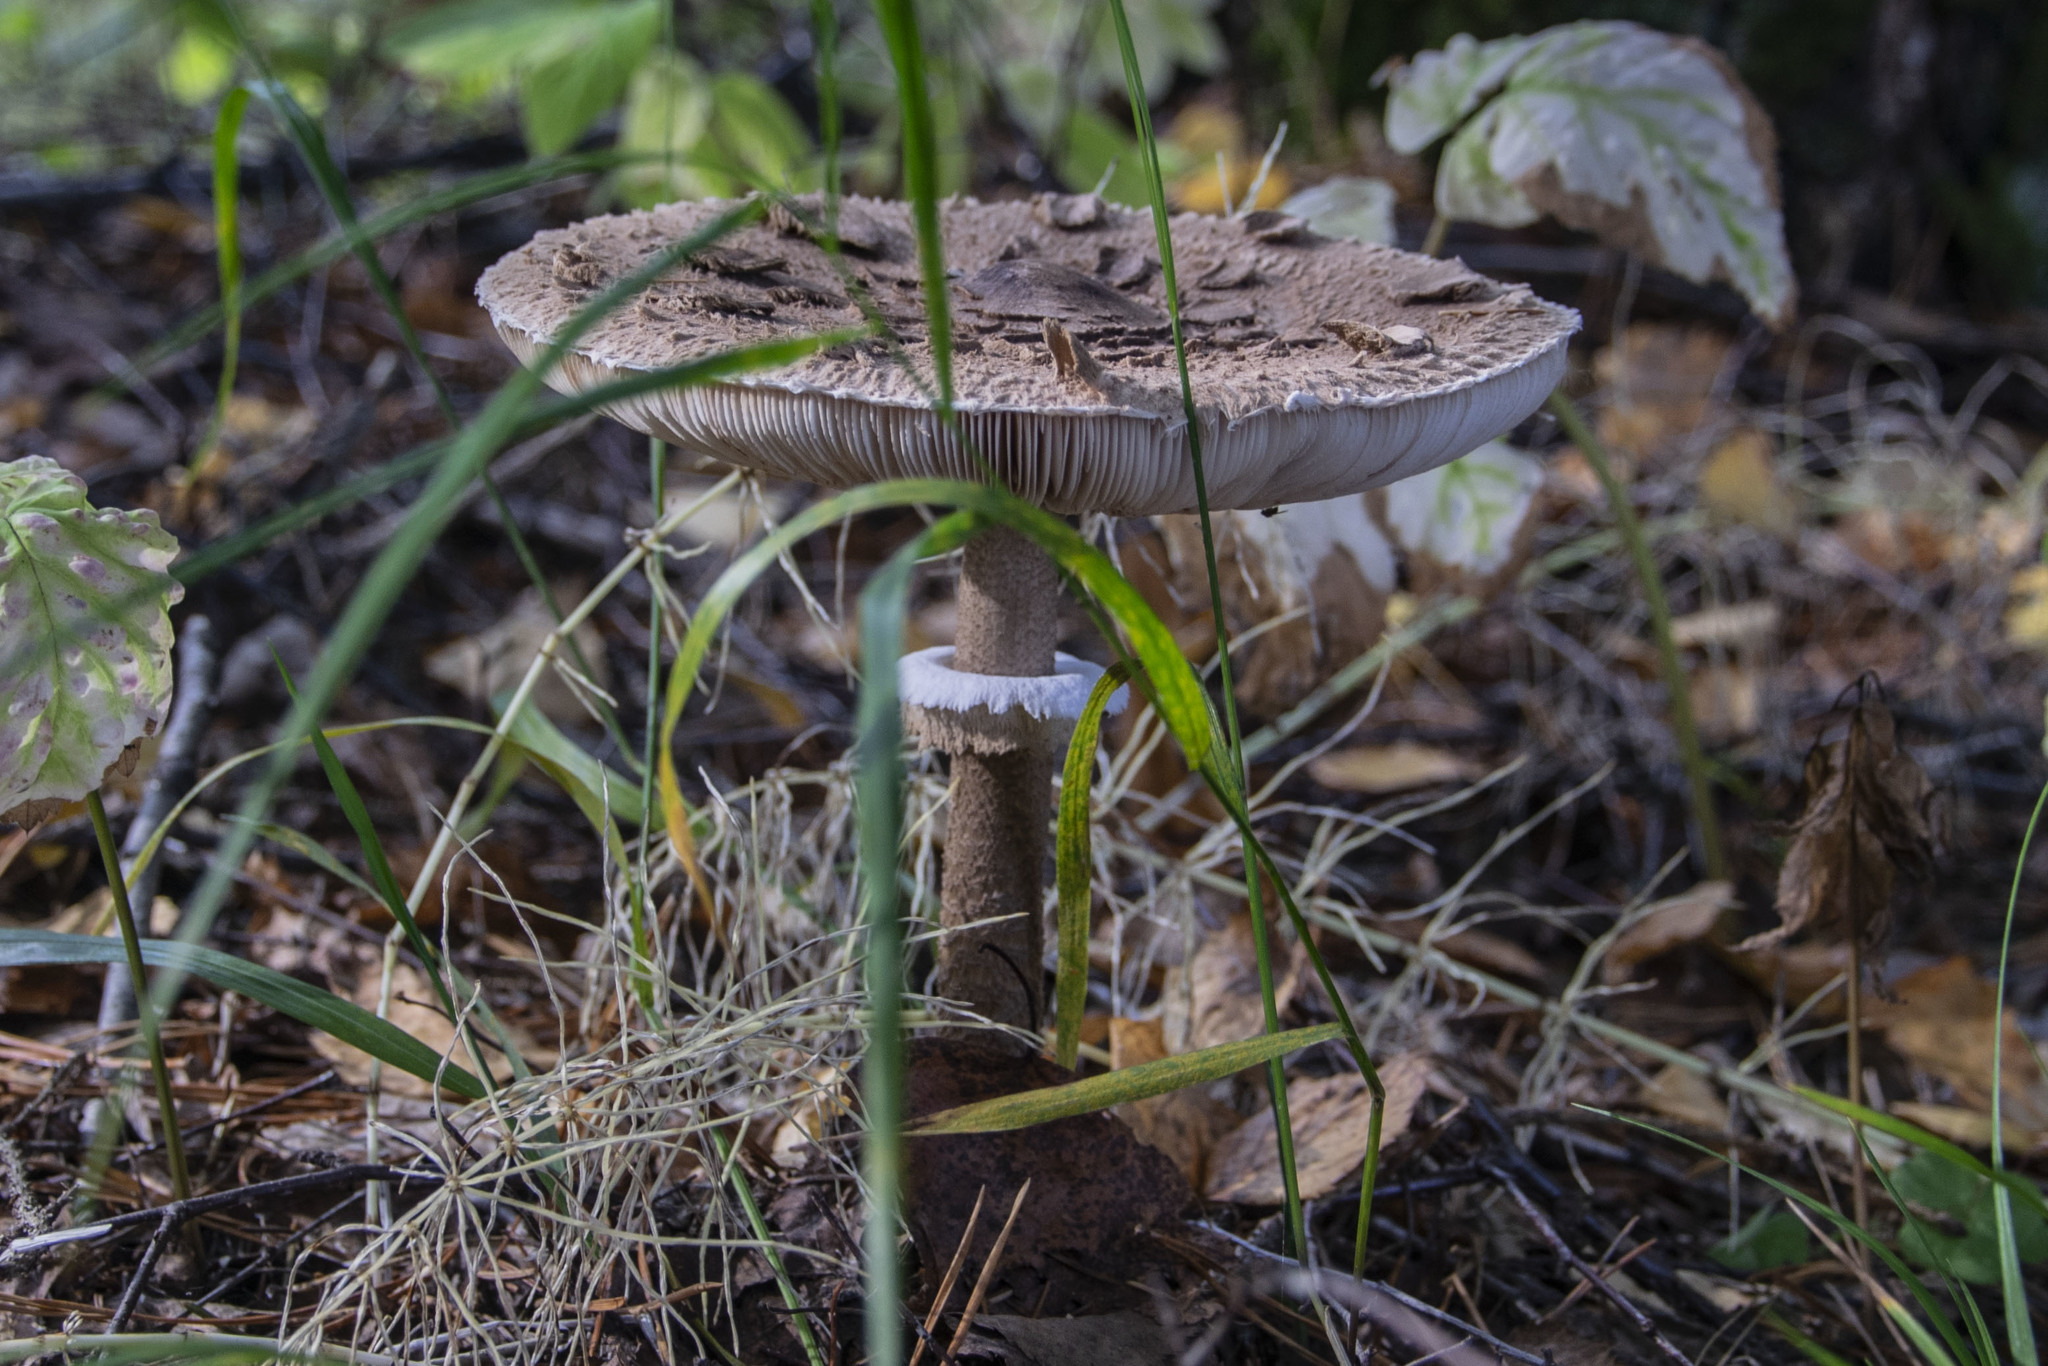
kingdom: Fungi
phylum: Basidiomycota
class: Agaricomycetes
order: Agaricales
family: Agaricaceae
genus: Macrolepiota
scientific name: Macrolepiota procera
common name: Parasol
